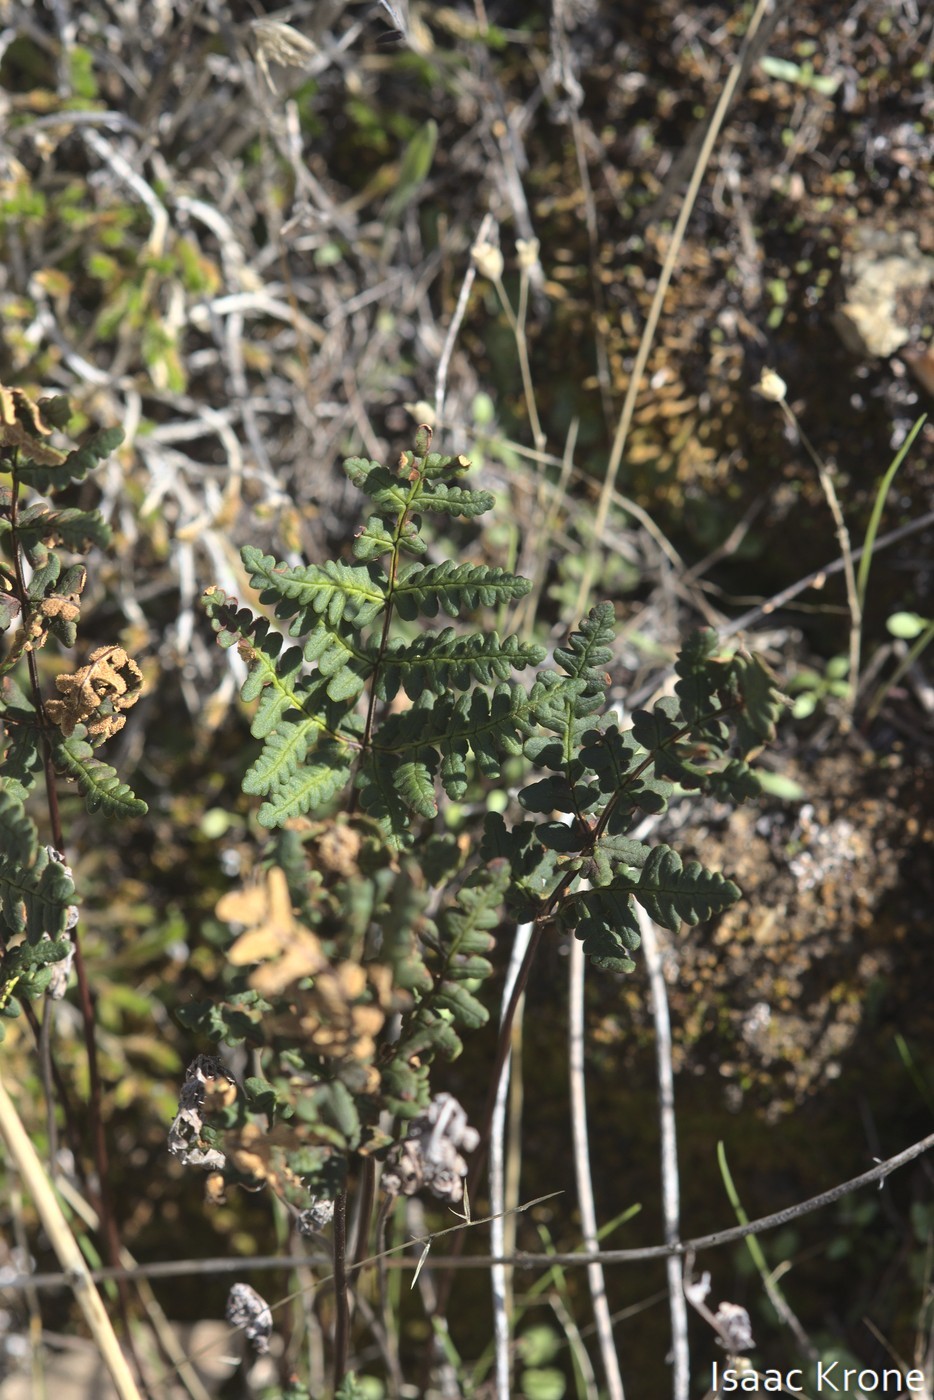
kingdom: Plantae
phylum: Tracheophyta
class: Polypodiopsida
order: Polypodiales
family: Pteridaceae
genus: Pentagramma
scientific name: Pentagramma triangularis
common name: Gold fern
